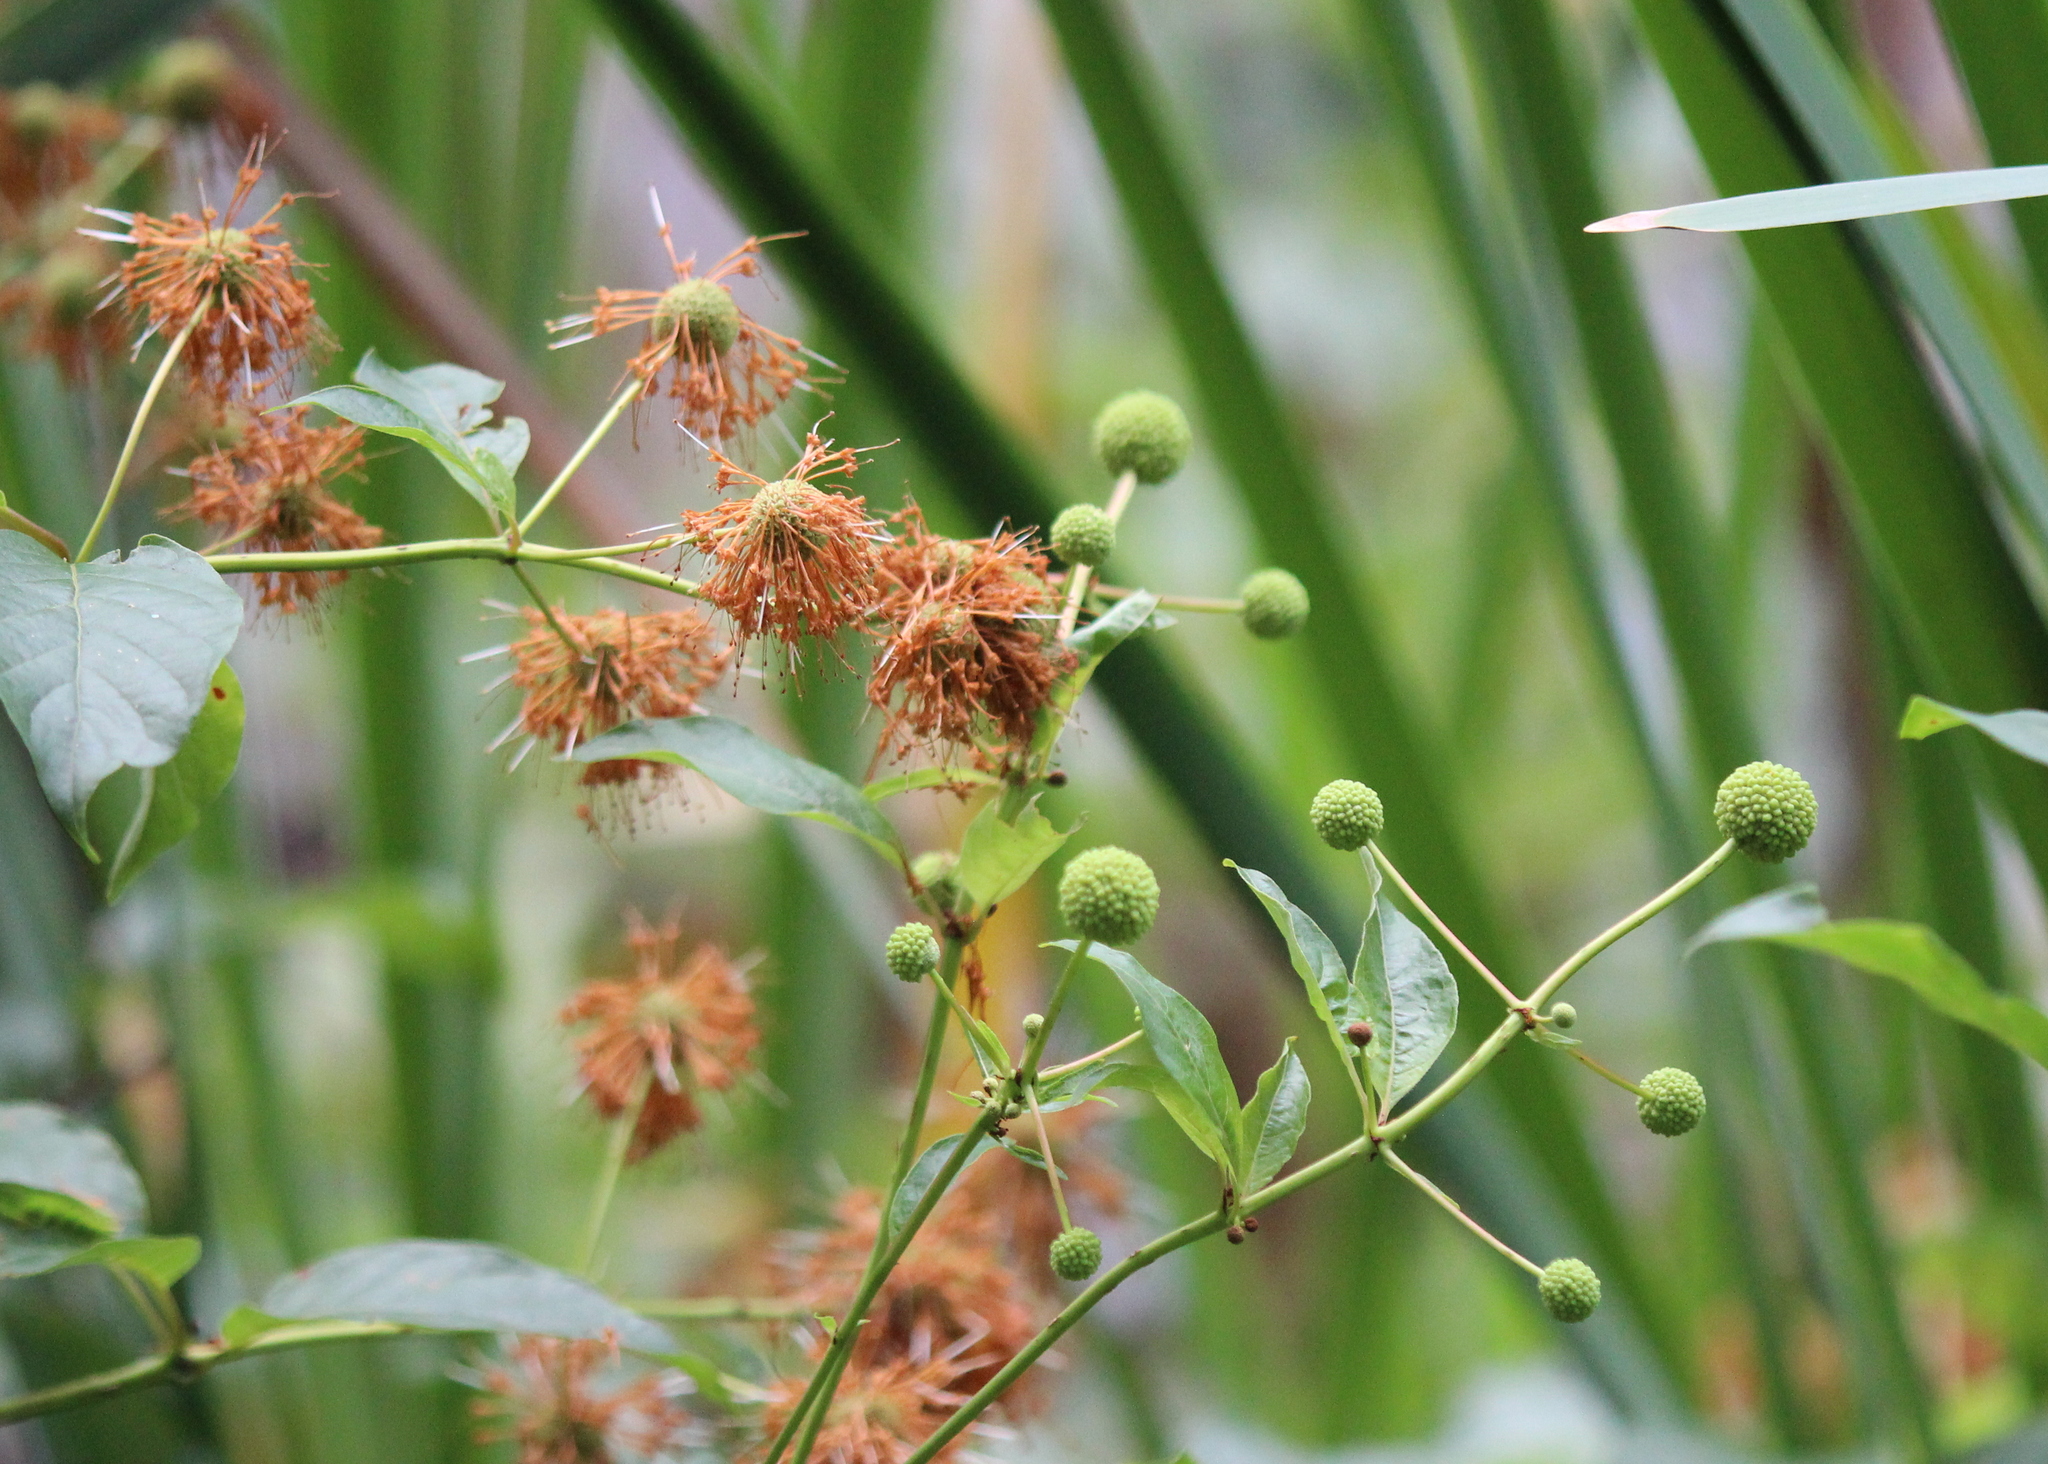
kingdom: Plantae
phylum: Tracheophyta
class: Magnoliopsida
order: Gentianales
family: Rubiaceae
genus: Cephalanthus
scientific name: Cephalanthus occidentalis
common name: Button-willow
